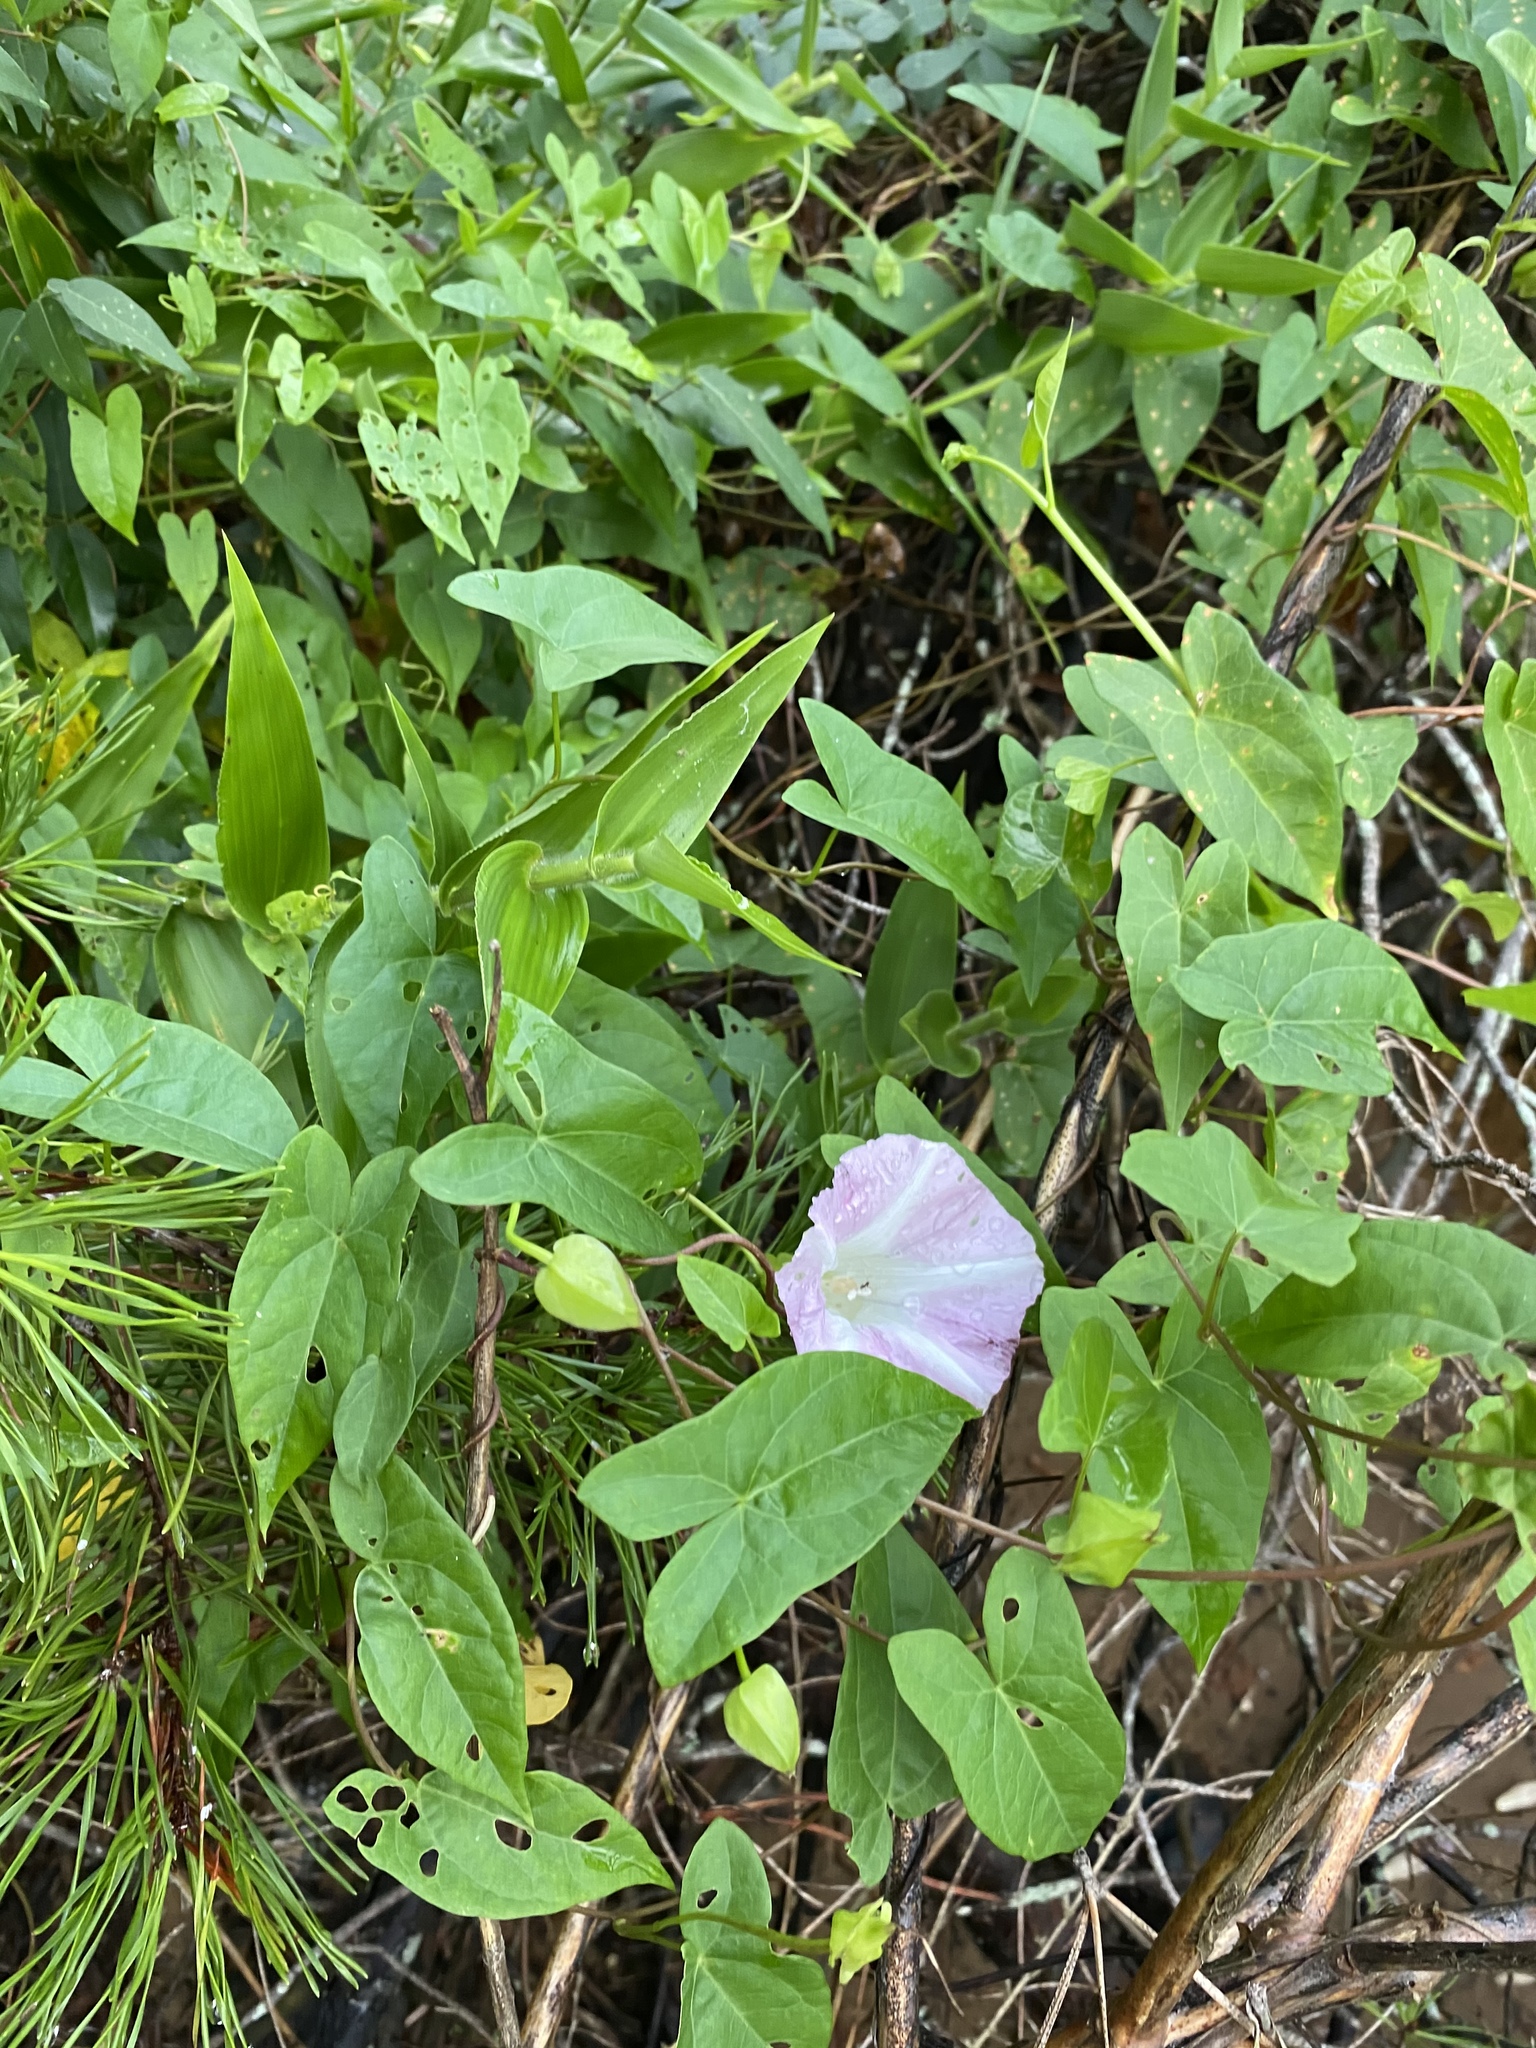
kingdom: Plantae
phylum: Tracheophyta
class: Magnoliopsida
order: Solanales
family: Convolvulaceae
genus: Calystegia
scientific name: Calystegia sepium
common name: Hedge bindweed
